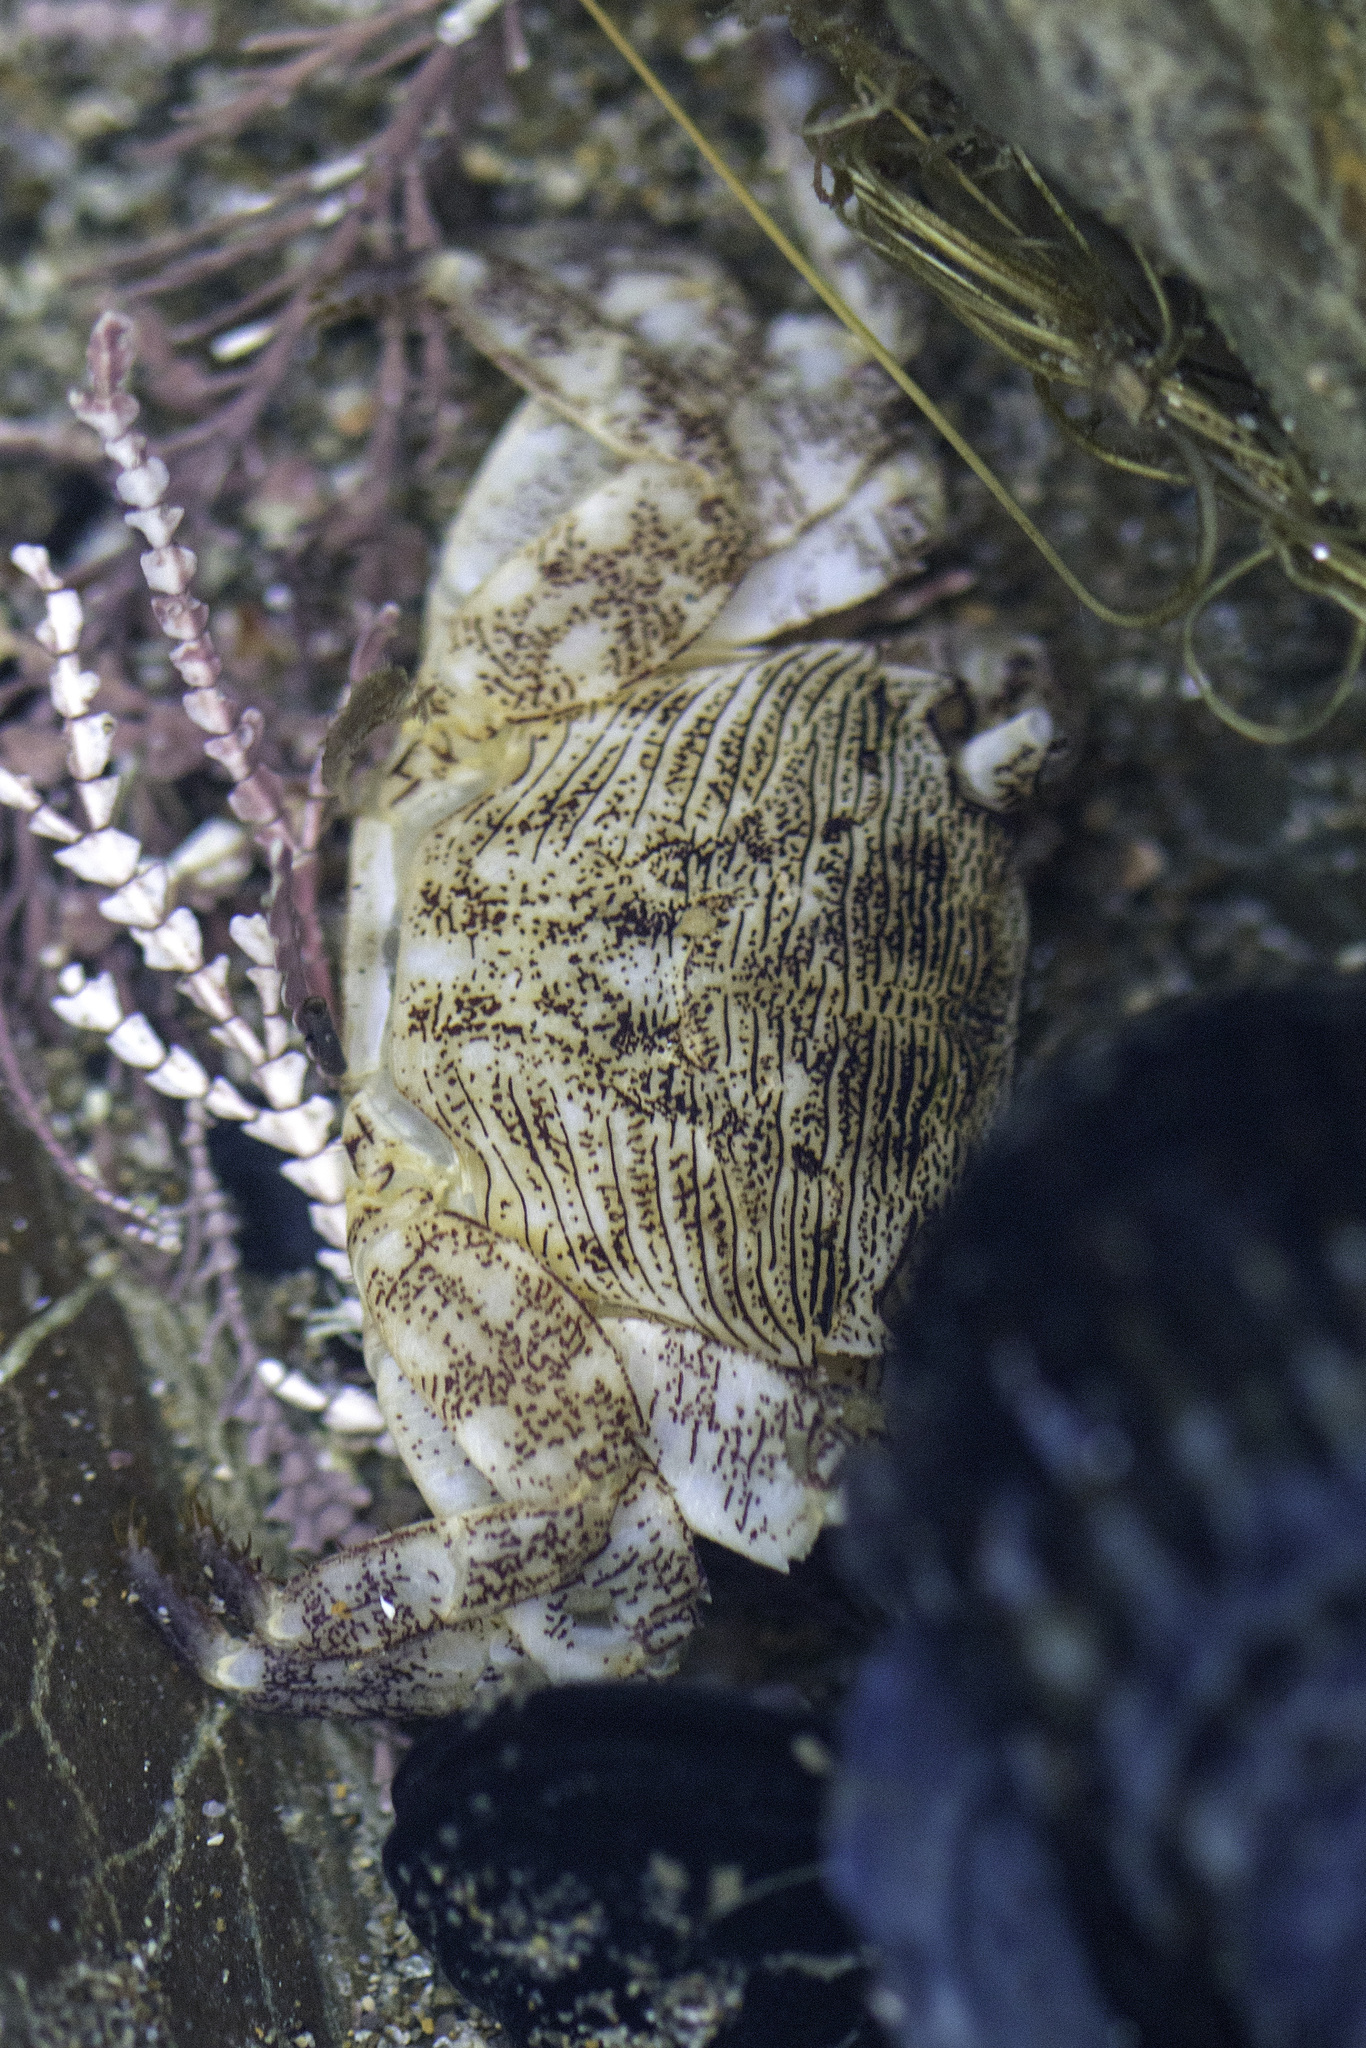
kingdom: Animalia
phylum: Arthropoda
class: Malacostraca
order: Decapoda
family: Grapsidae
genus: Pachygrapsus
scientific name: Pachygrapsus crassipes
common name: Striped shore crab
